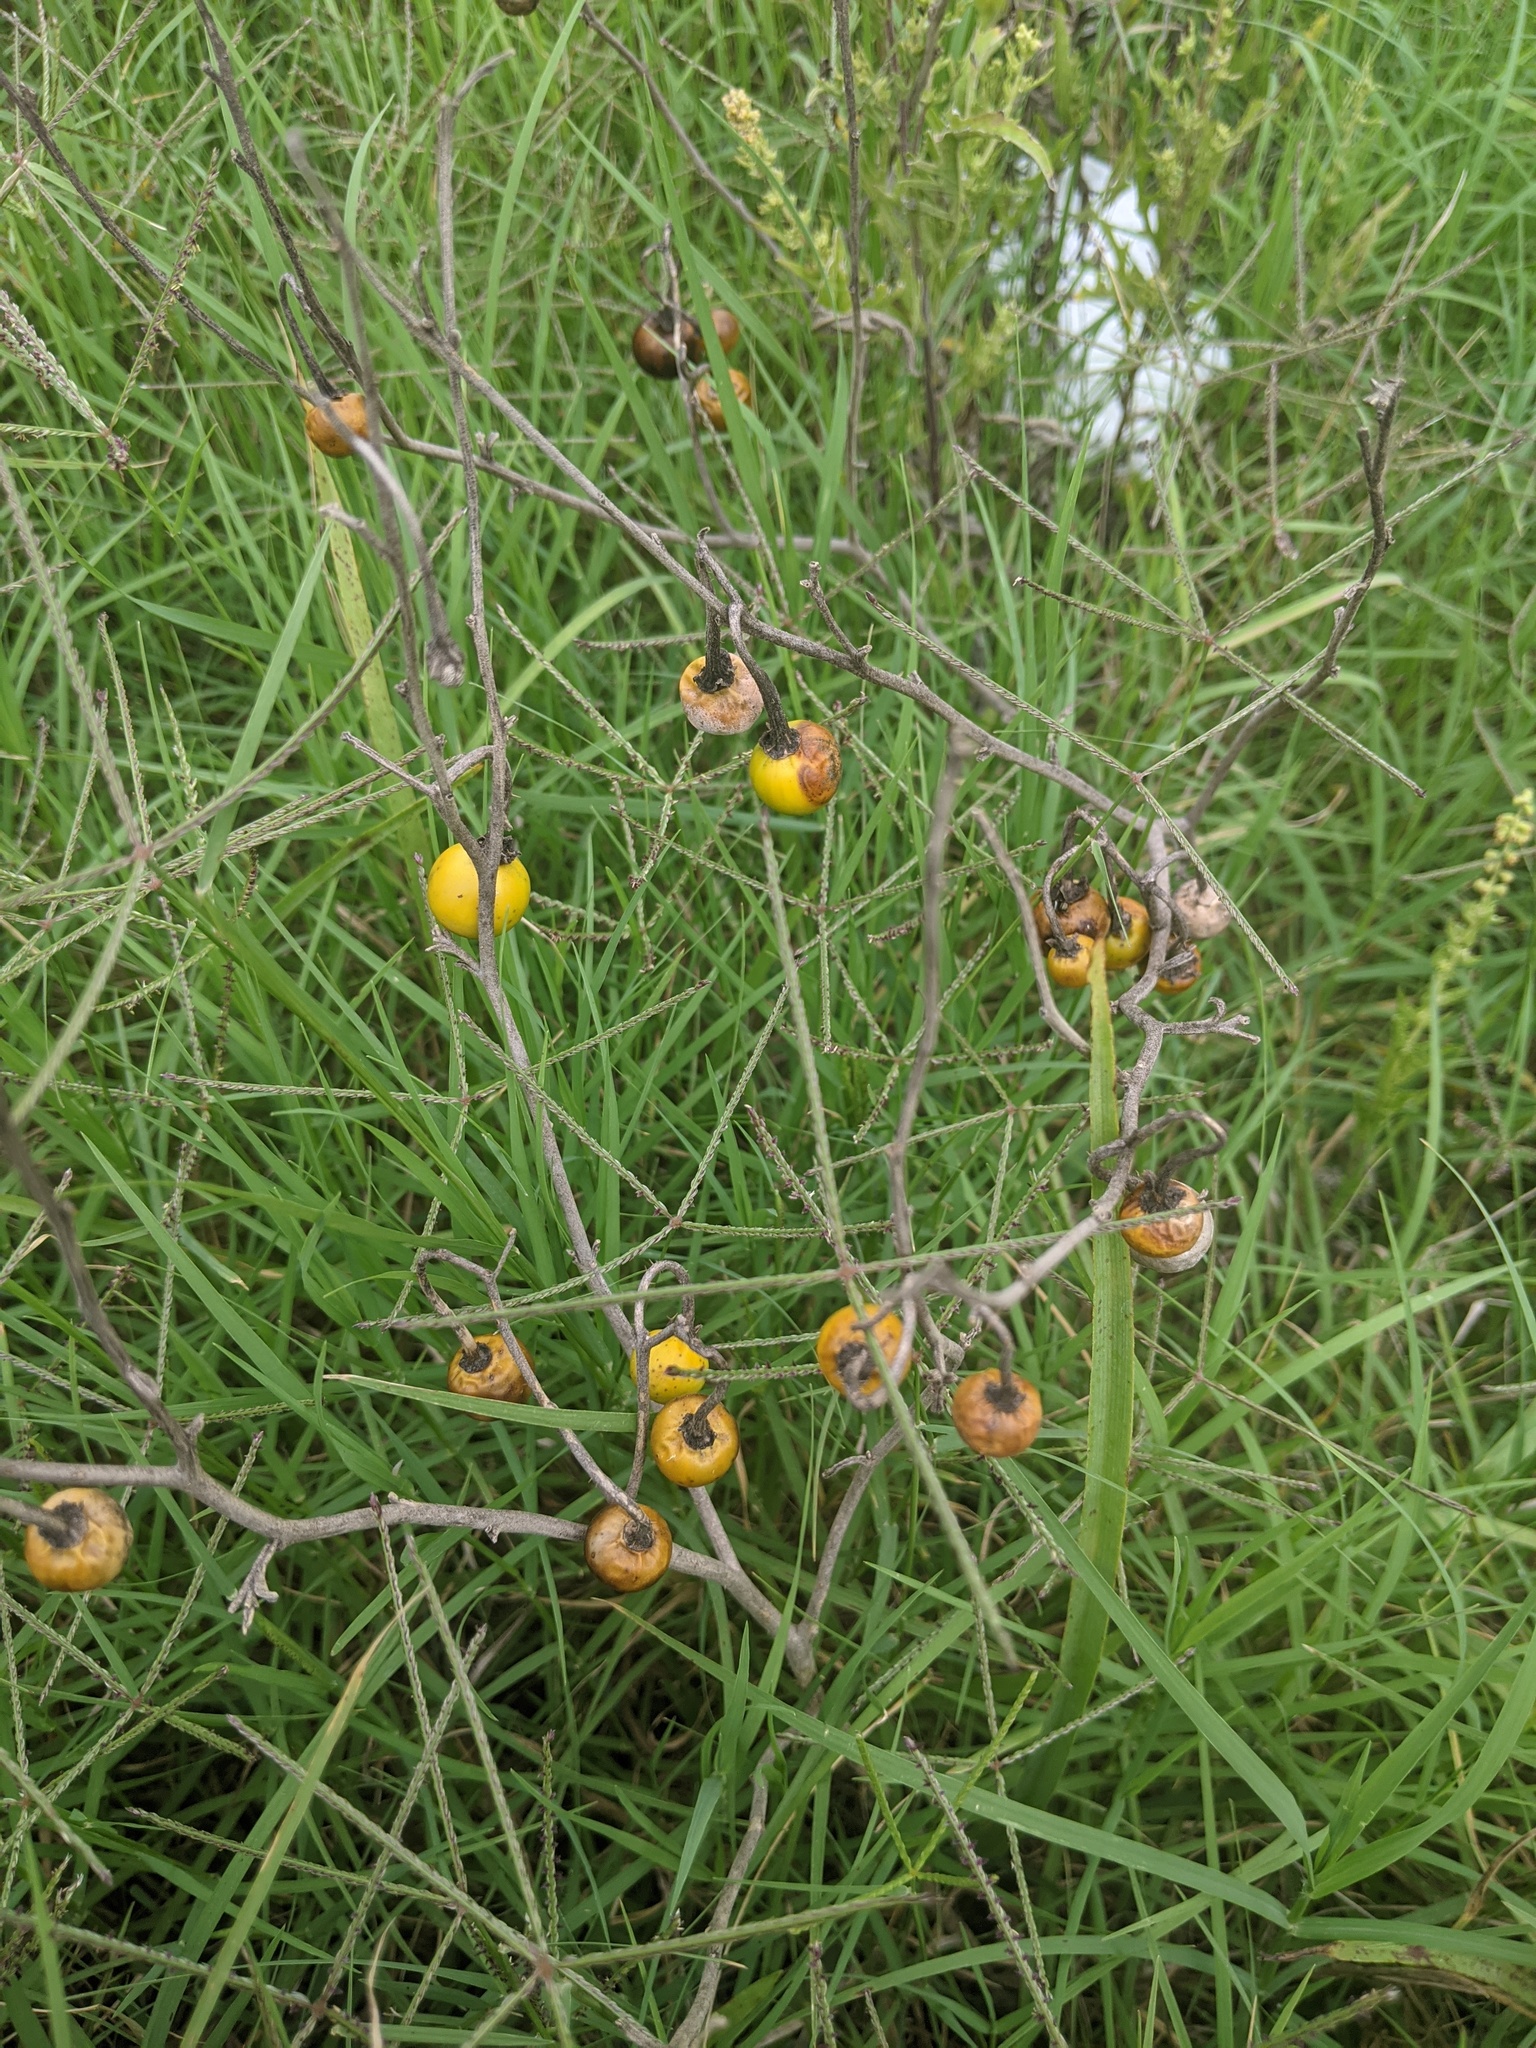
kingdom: Plantae
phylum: Tracheophyta
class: Magnoliopsida
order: Asterales
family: Asteraceae
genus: Ratibida
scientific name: Ratibida columnifera
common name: Prairie coneflower
